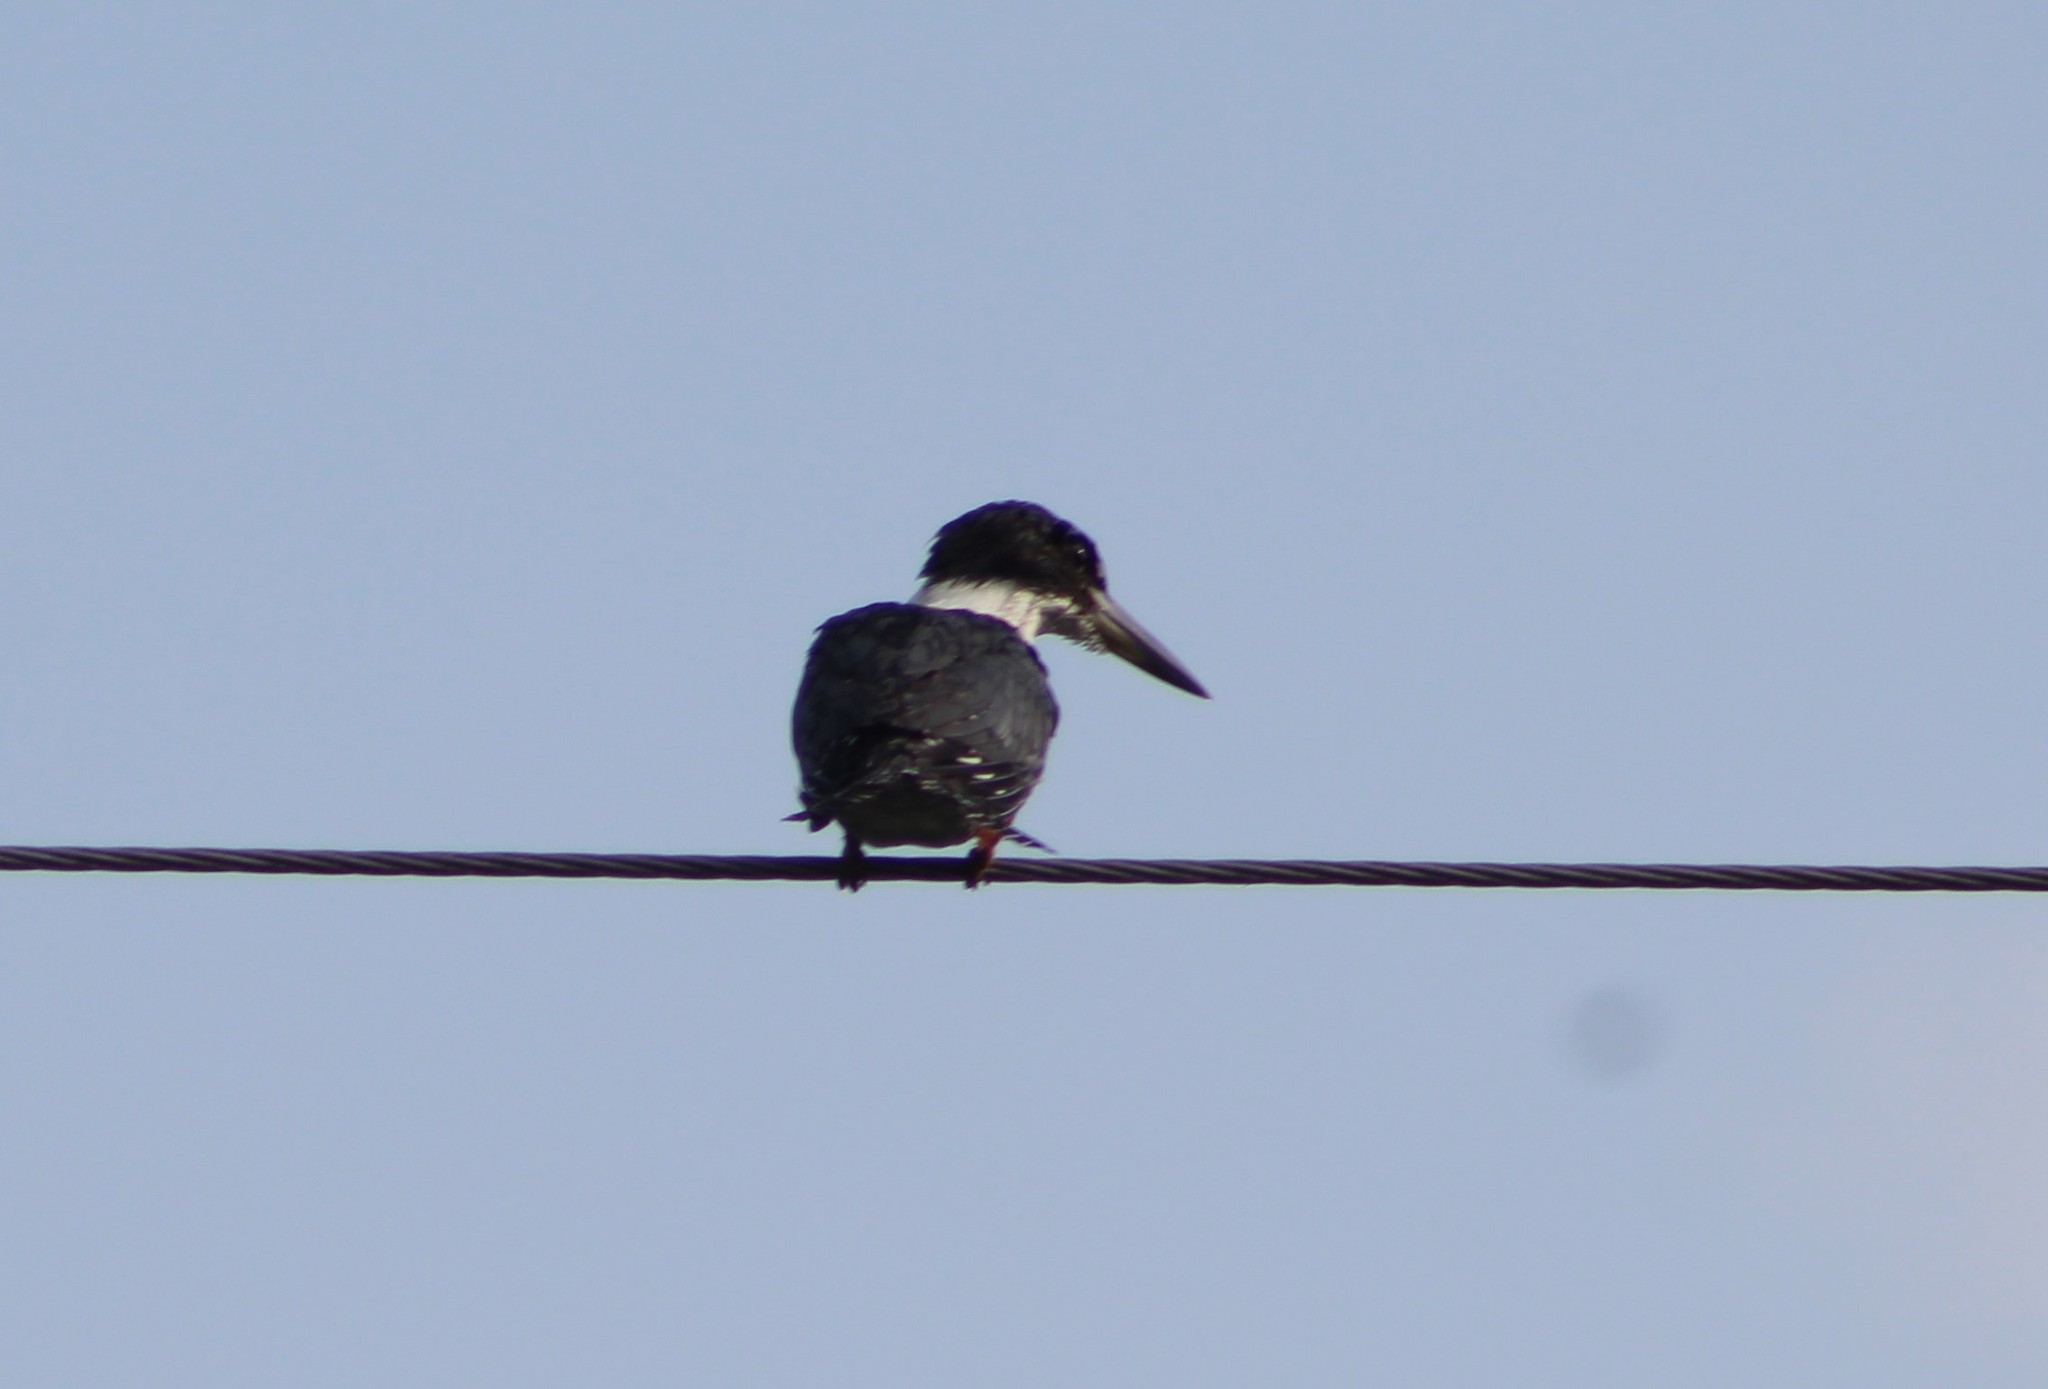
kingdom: Animalia
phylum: Chordata
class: Aves
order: Coraciiformes
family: Alcedinidae
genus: Megaceryle
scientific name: Megaceryle torquata
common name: Ringed kingfisher
